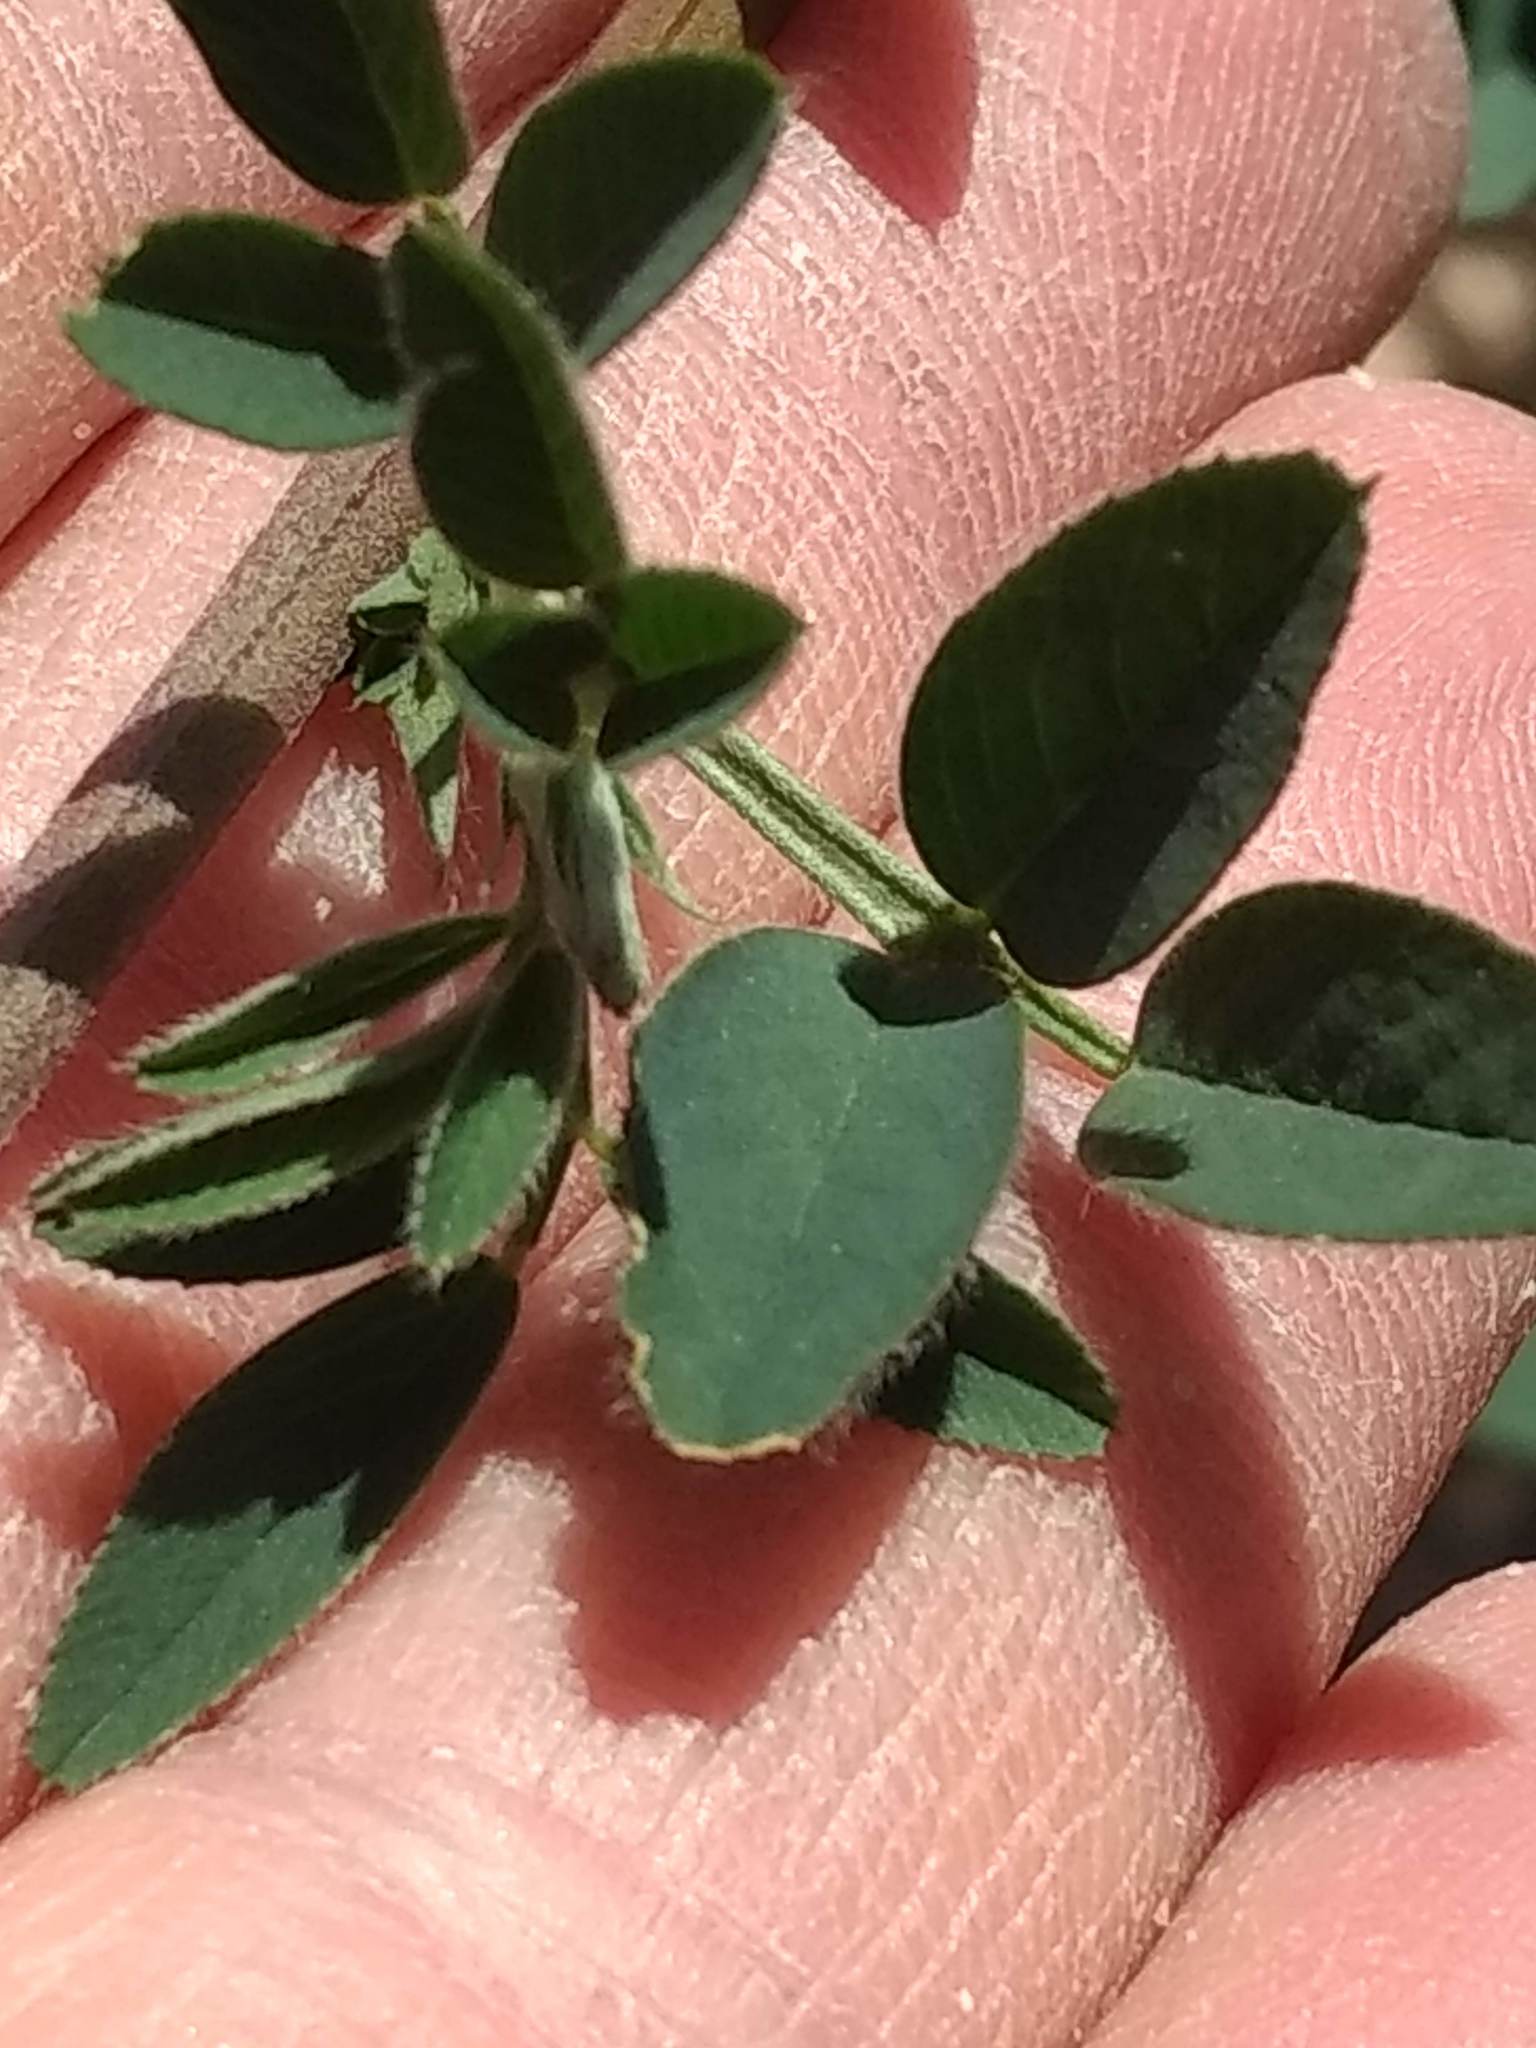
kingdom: Plantae
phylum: Tracheophyta
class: Magnoliopsida
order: Fabales
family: Fabaceae
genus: Medicago
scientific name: Medicago sativa
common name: Alfalfa
